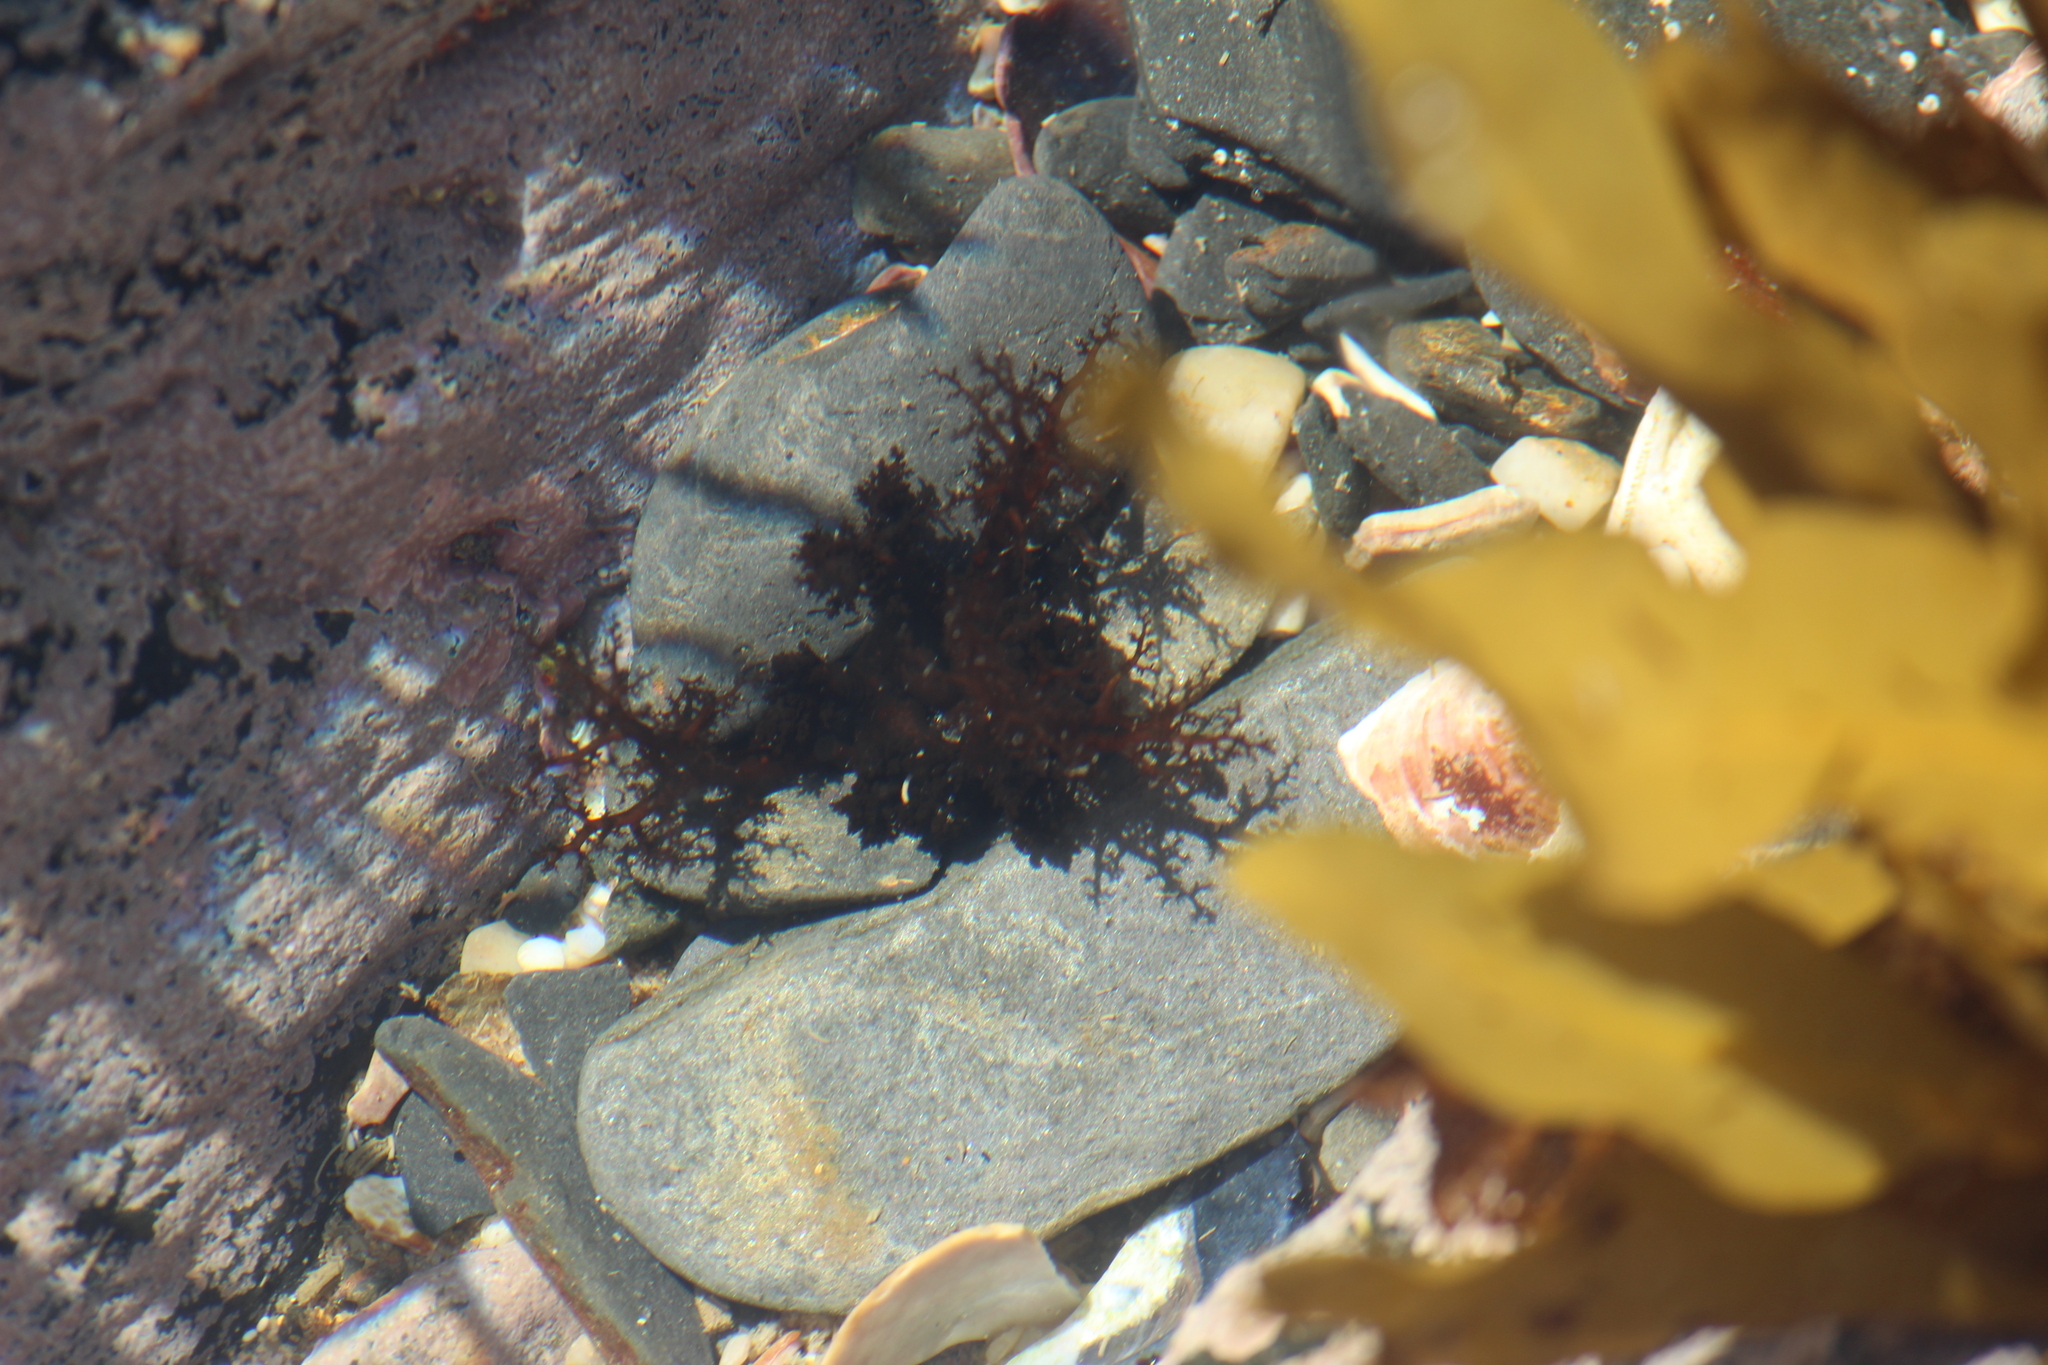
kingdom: Animalia
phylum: Echinodermata
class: Holothuroidea
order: Dendrochirotida
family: Cucumariidae
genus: Roweia
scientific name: Roweia frauenfeldi
